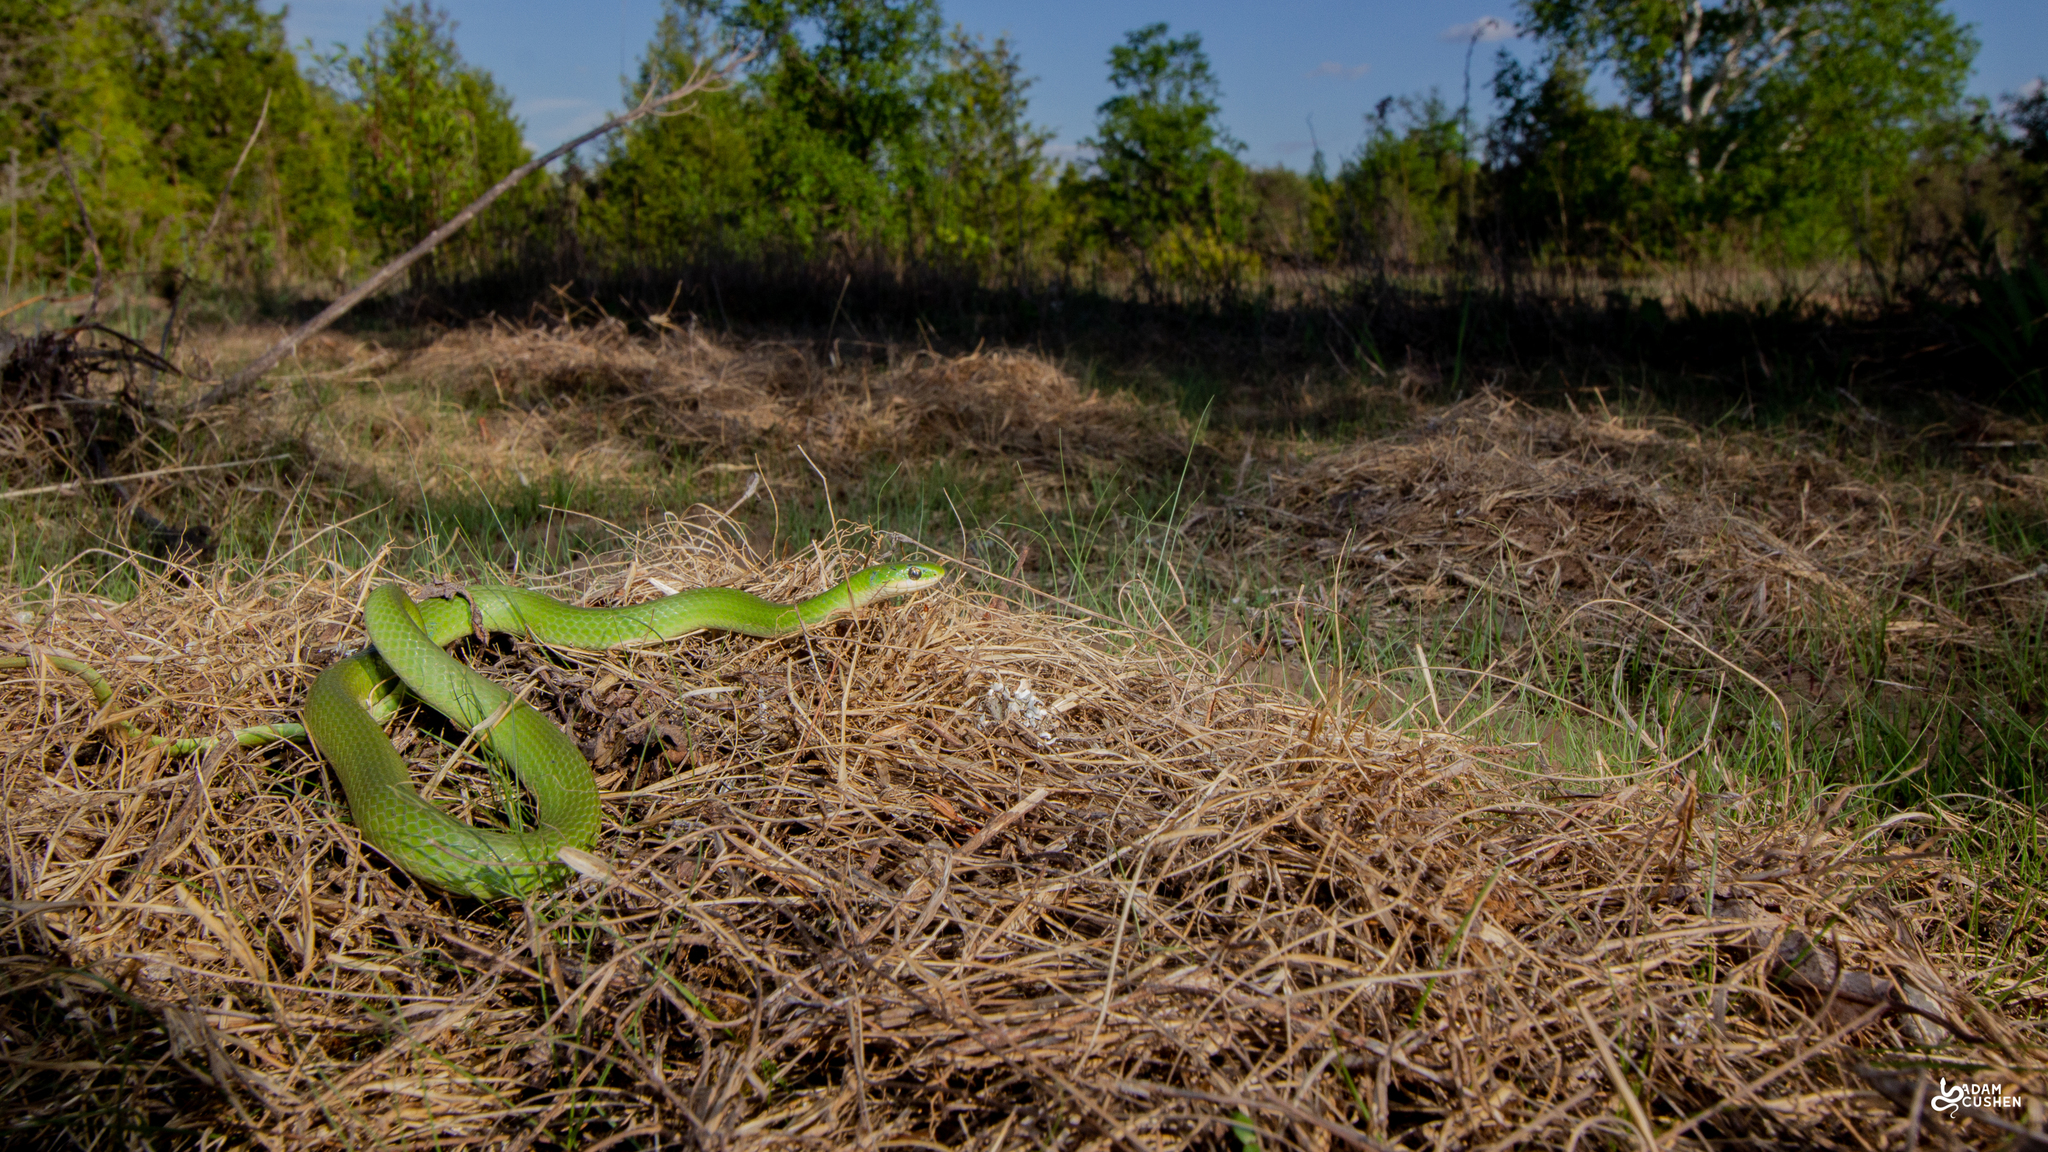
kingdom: Animalia
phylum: Chordata
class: Squamata
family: Colubridae
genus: Opheodrys
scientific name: Opheodrys vernalis
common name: Smooth green snake
